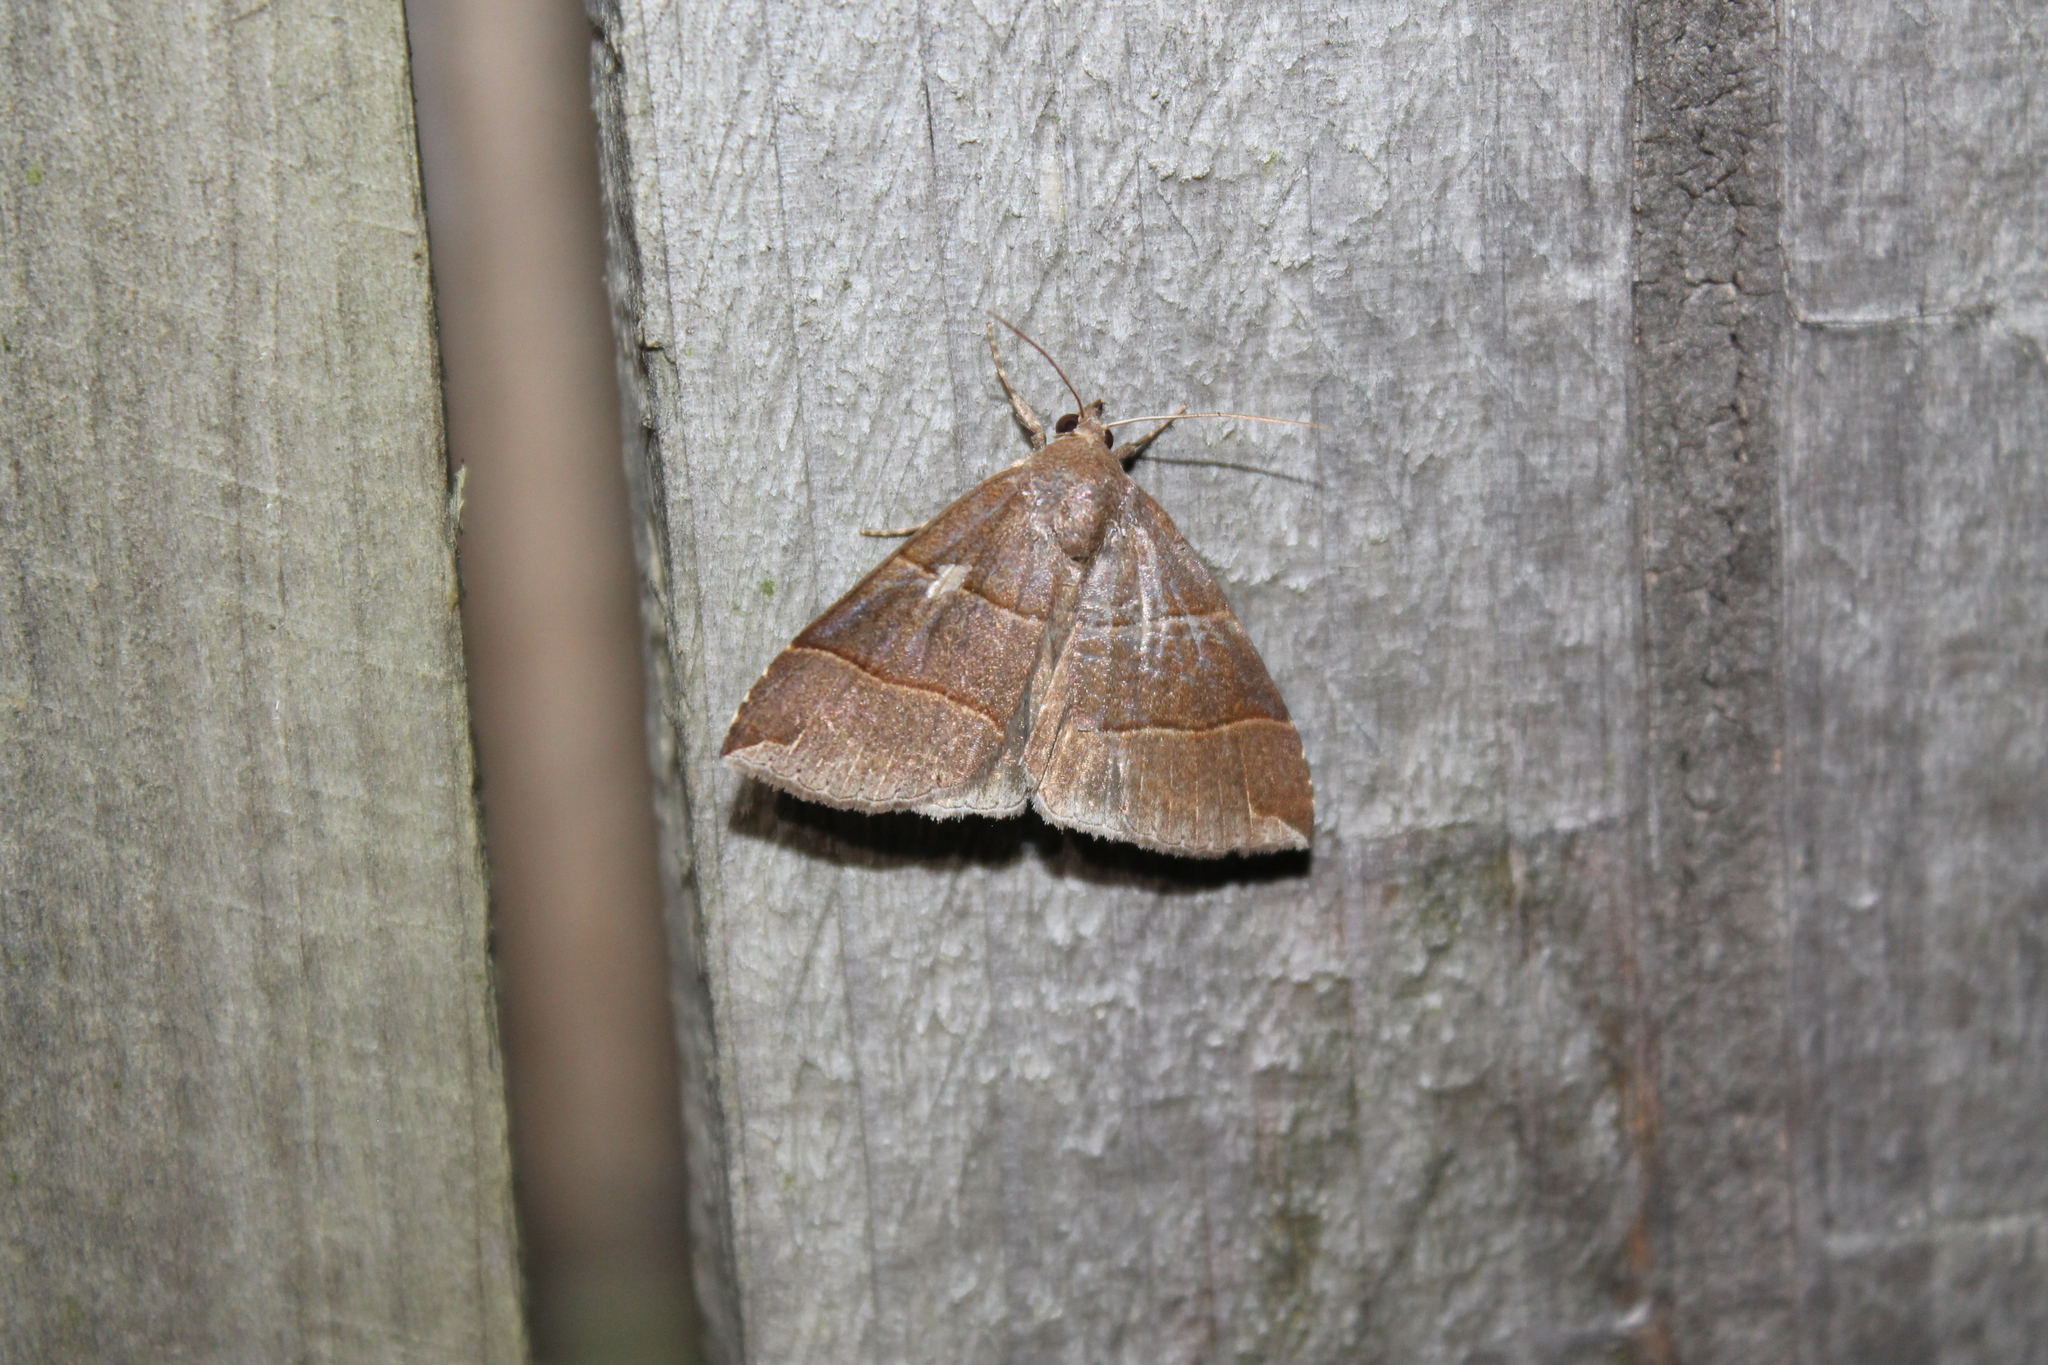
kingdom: Animalia
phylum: Arthropoda
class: Insecta
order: Lepidoptera
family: Erebidae
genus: Parallelia
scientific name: Parallelia bistriaris
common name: Maple looper moth
